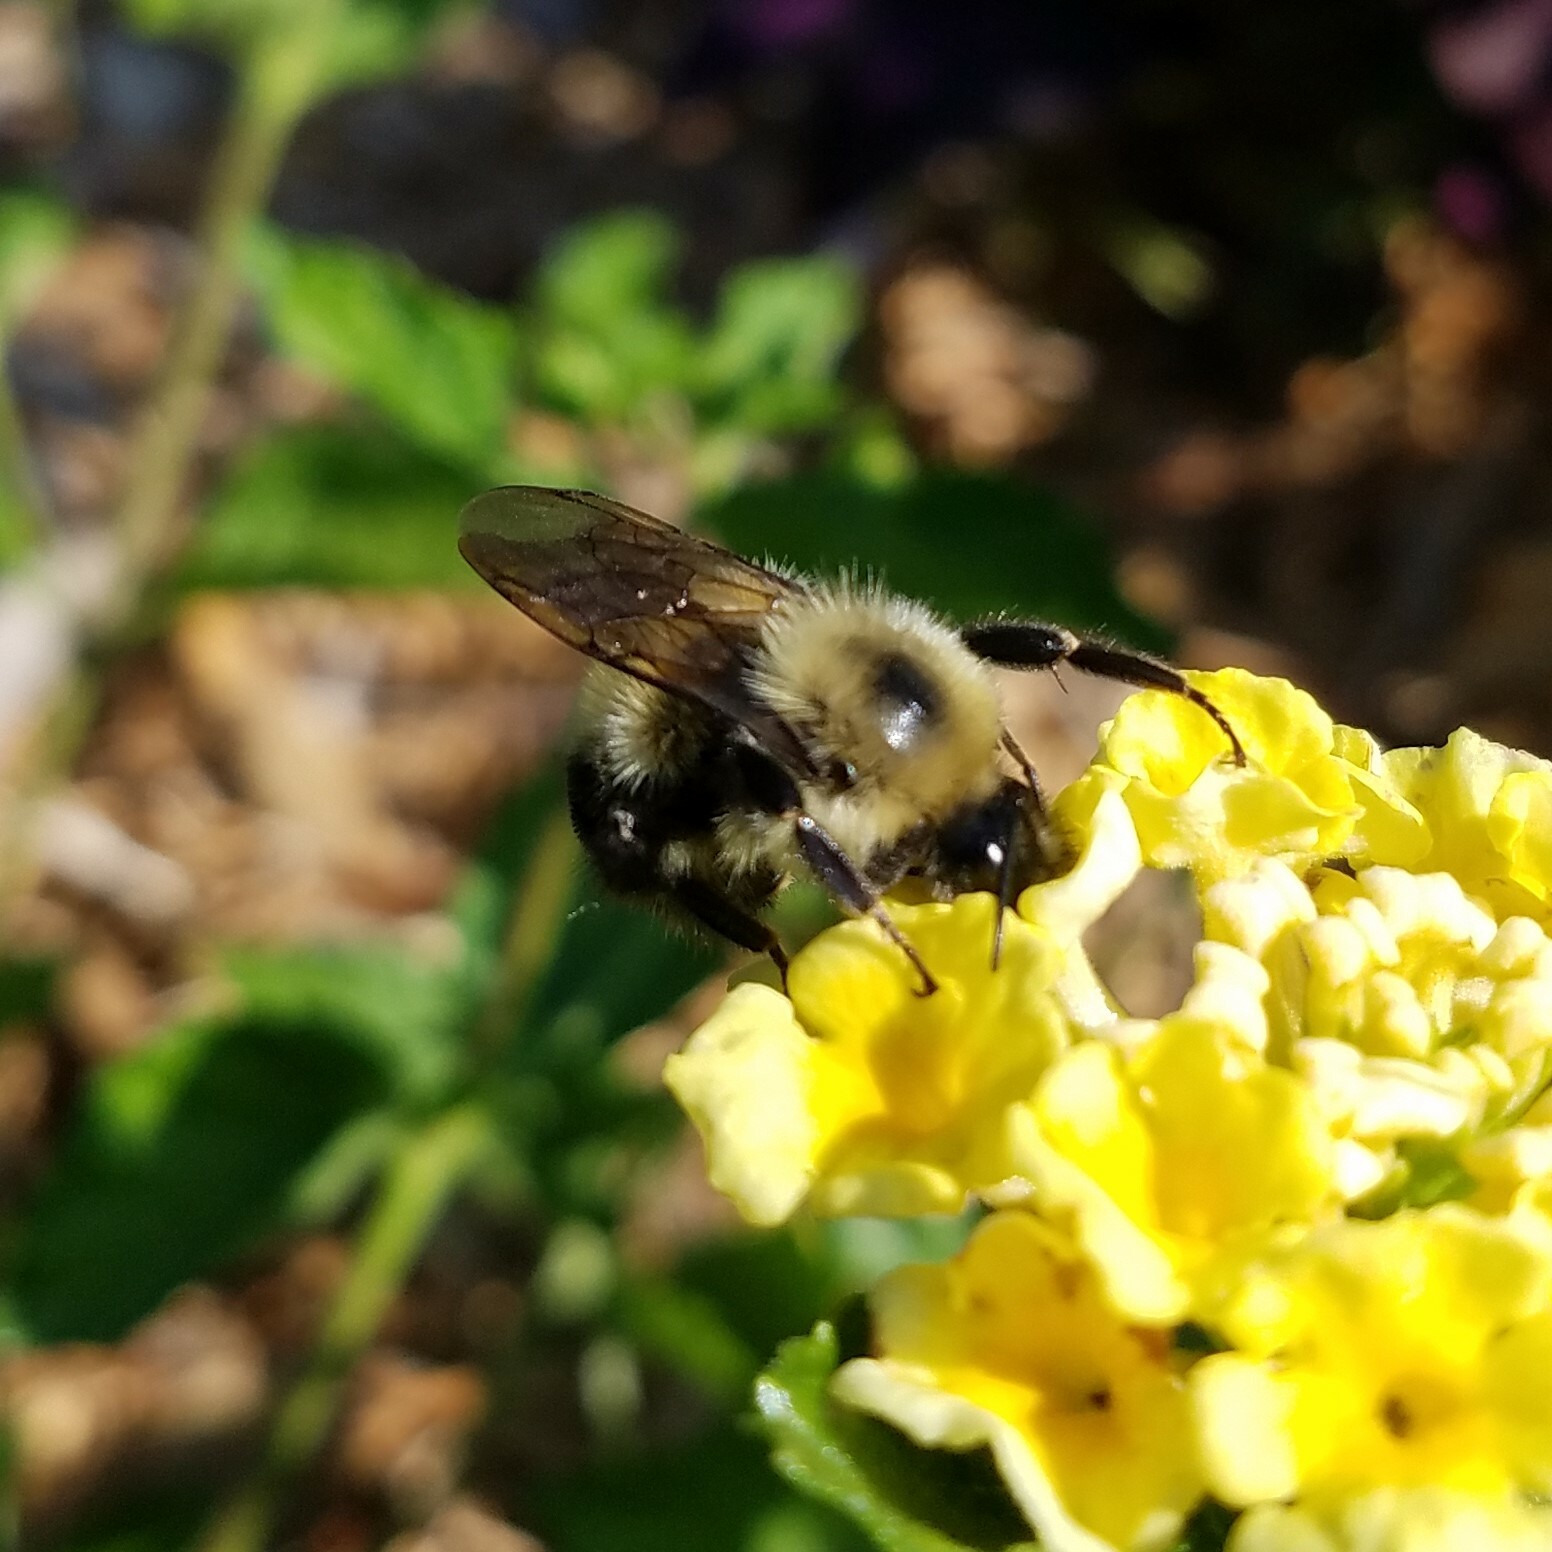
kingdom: Animalia
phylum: Arthropoda
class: Insecta
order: Hymenoptera
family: Apidae
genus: Bombus
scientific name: Bombus bimaculatus
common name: Two-spotted bumble bee
